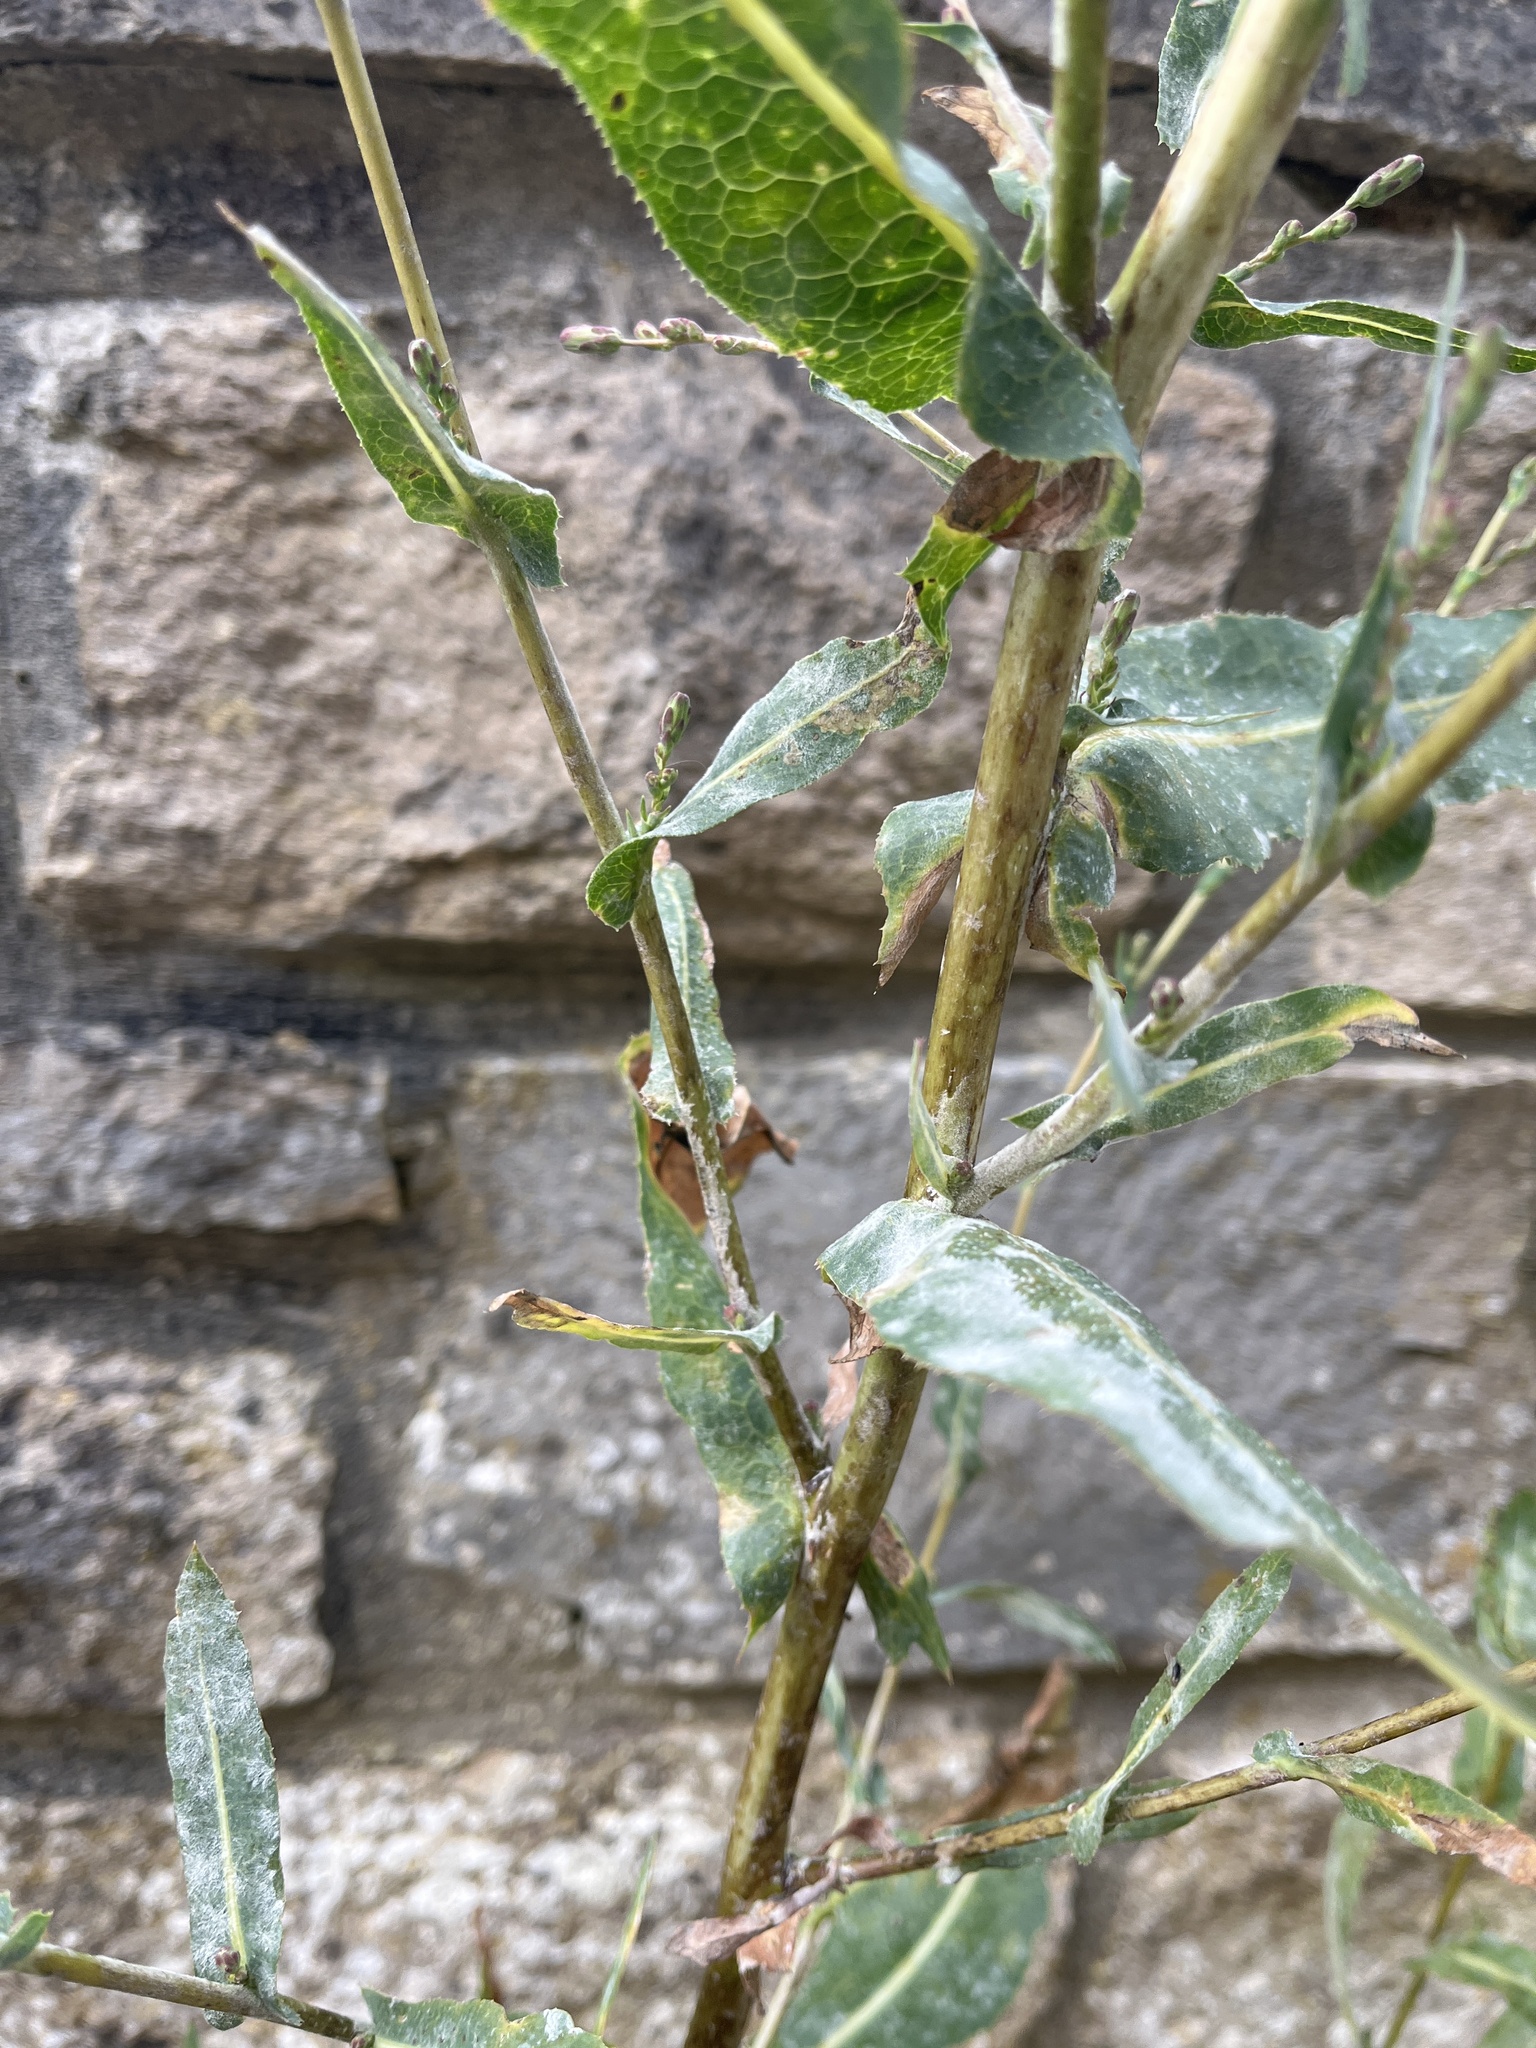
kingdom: Fungi
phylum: Ascomycota
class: Leotiomycetes
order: Helotiales
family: Erysiphaceae
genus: Golovinomyces
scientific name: Golovinomyces bolayi
